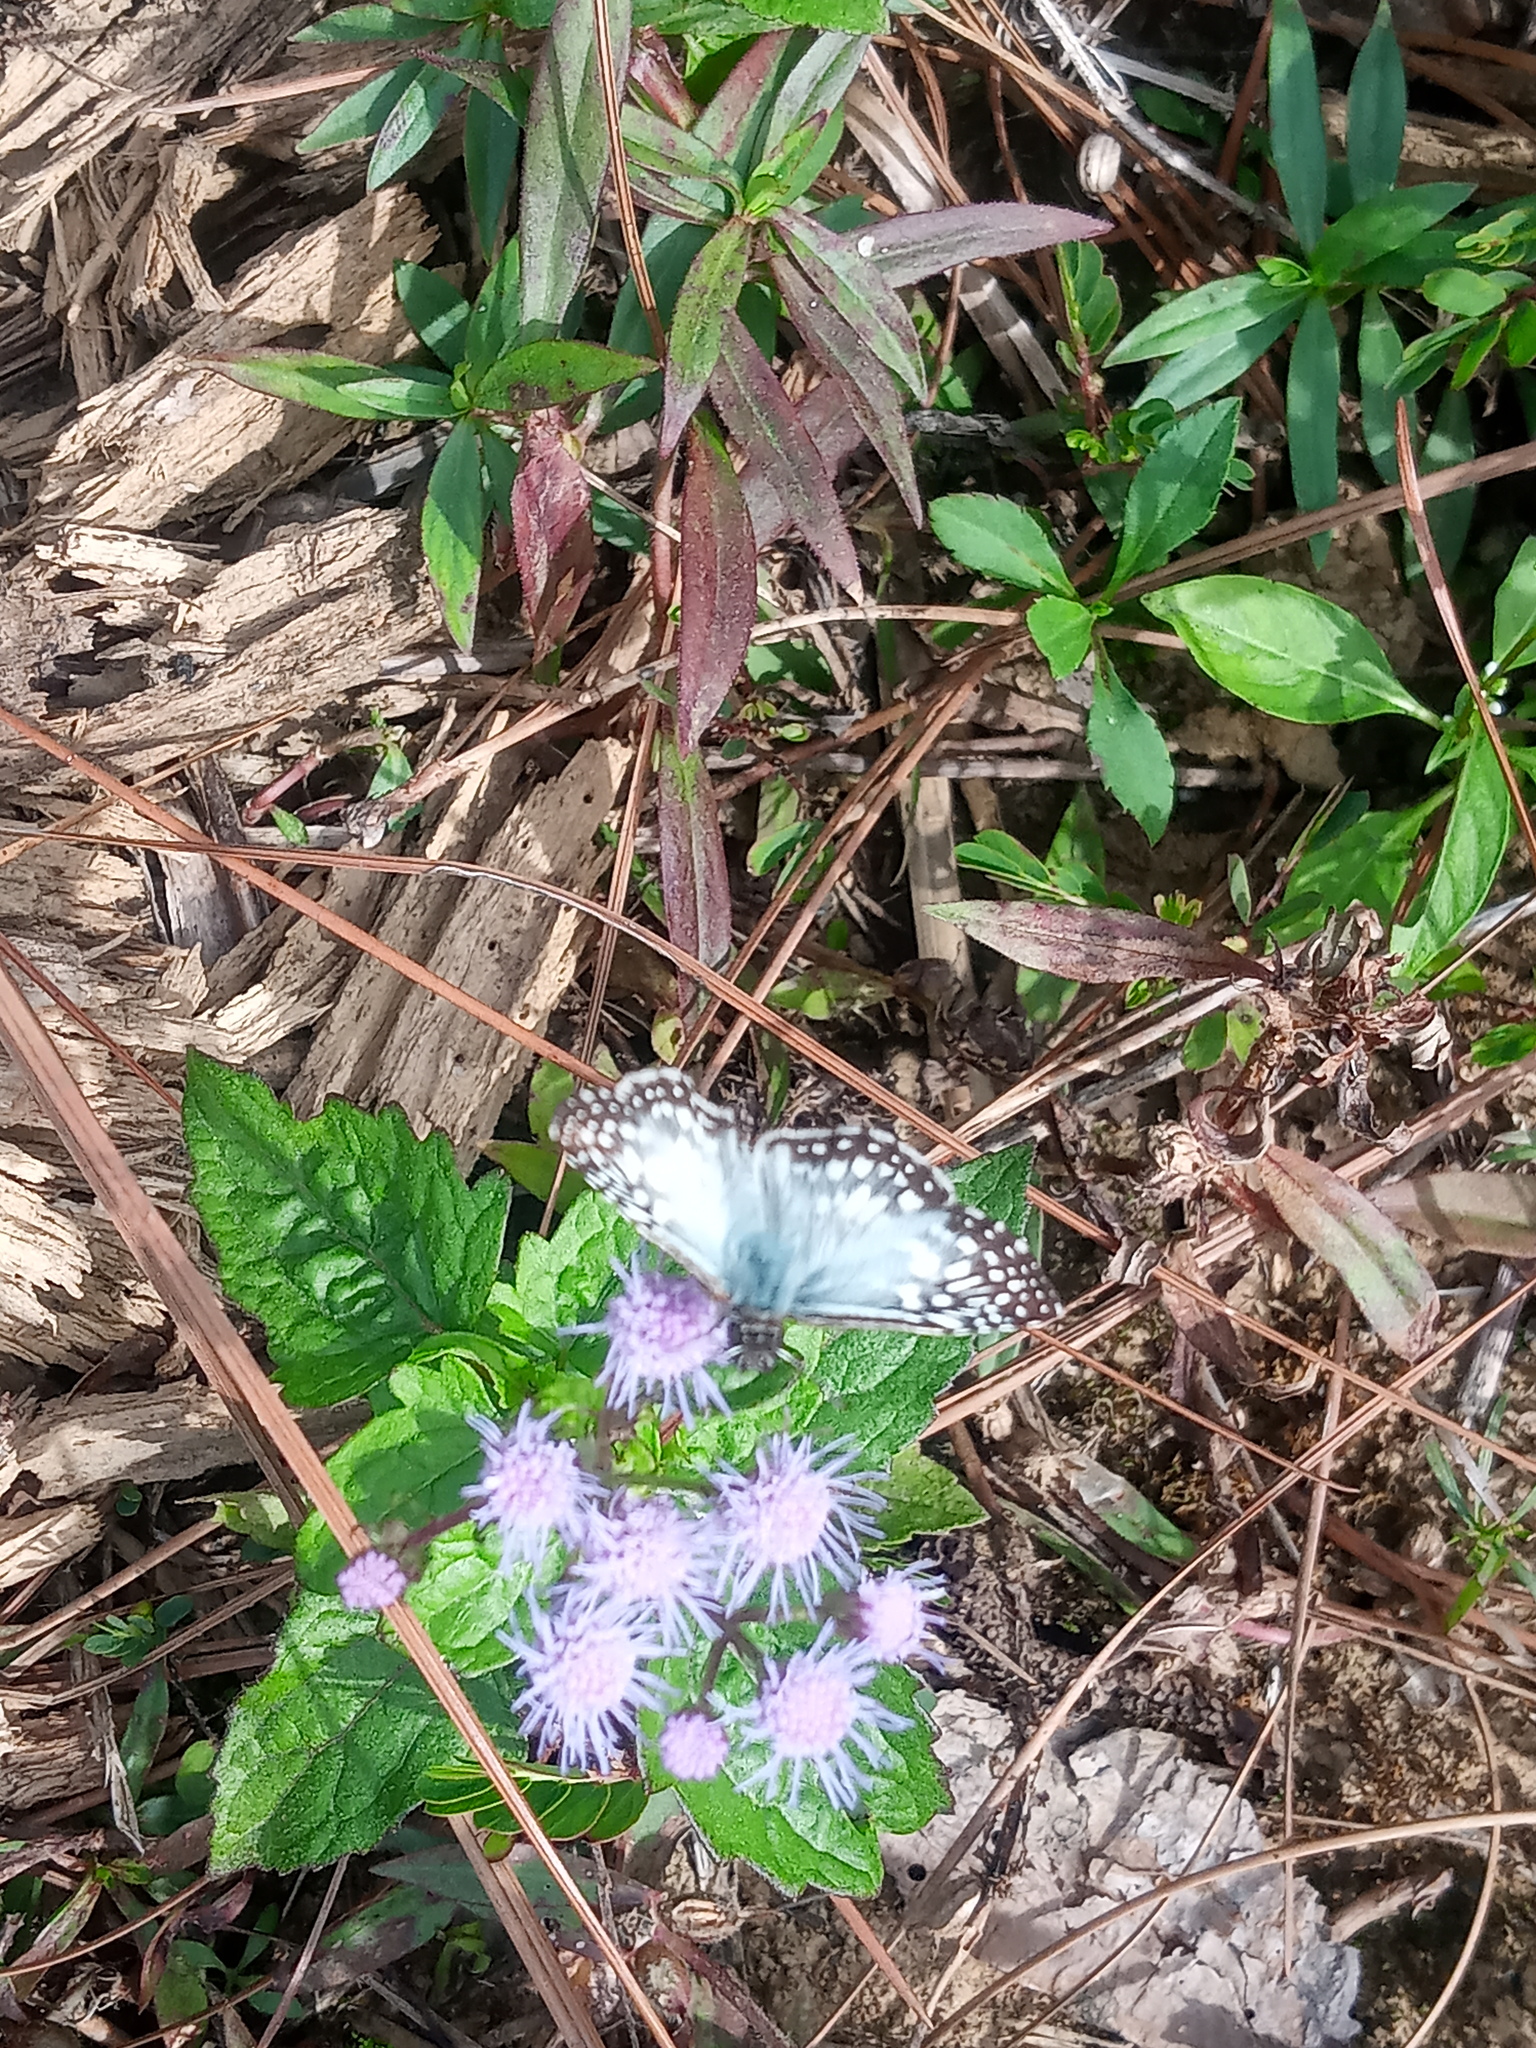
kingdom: Animalia
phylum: Arthropoda
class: Insecta
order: Lepidoptera
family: Hesperiidae
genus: Pyrgus
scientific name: Pyrgus oileus
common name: Tropical checkered-skipper
